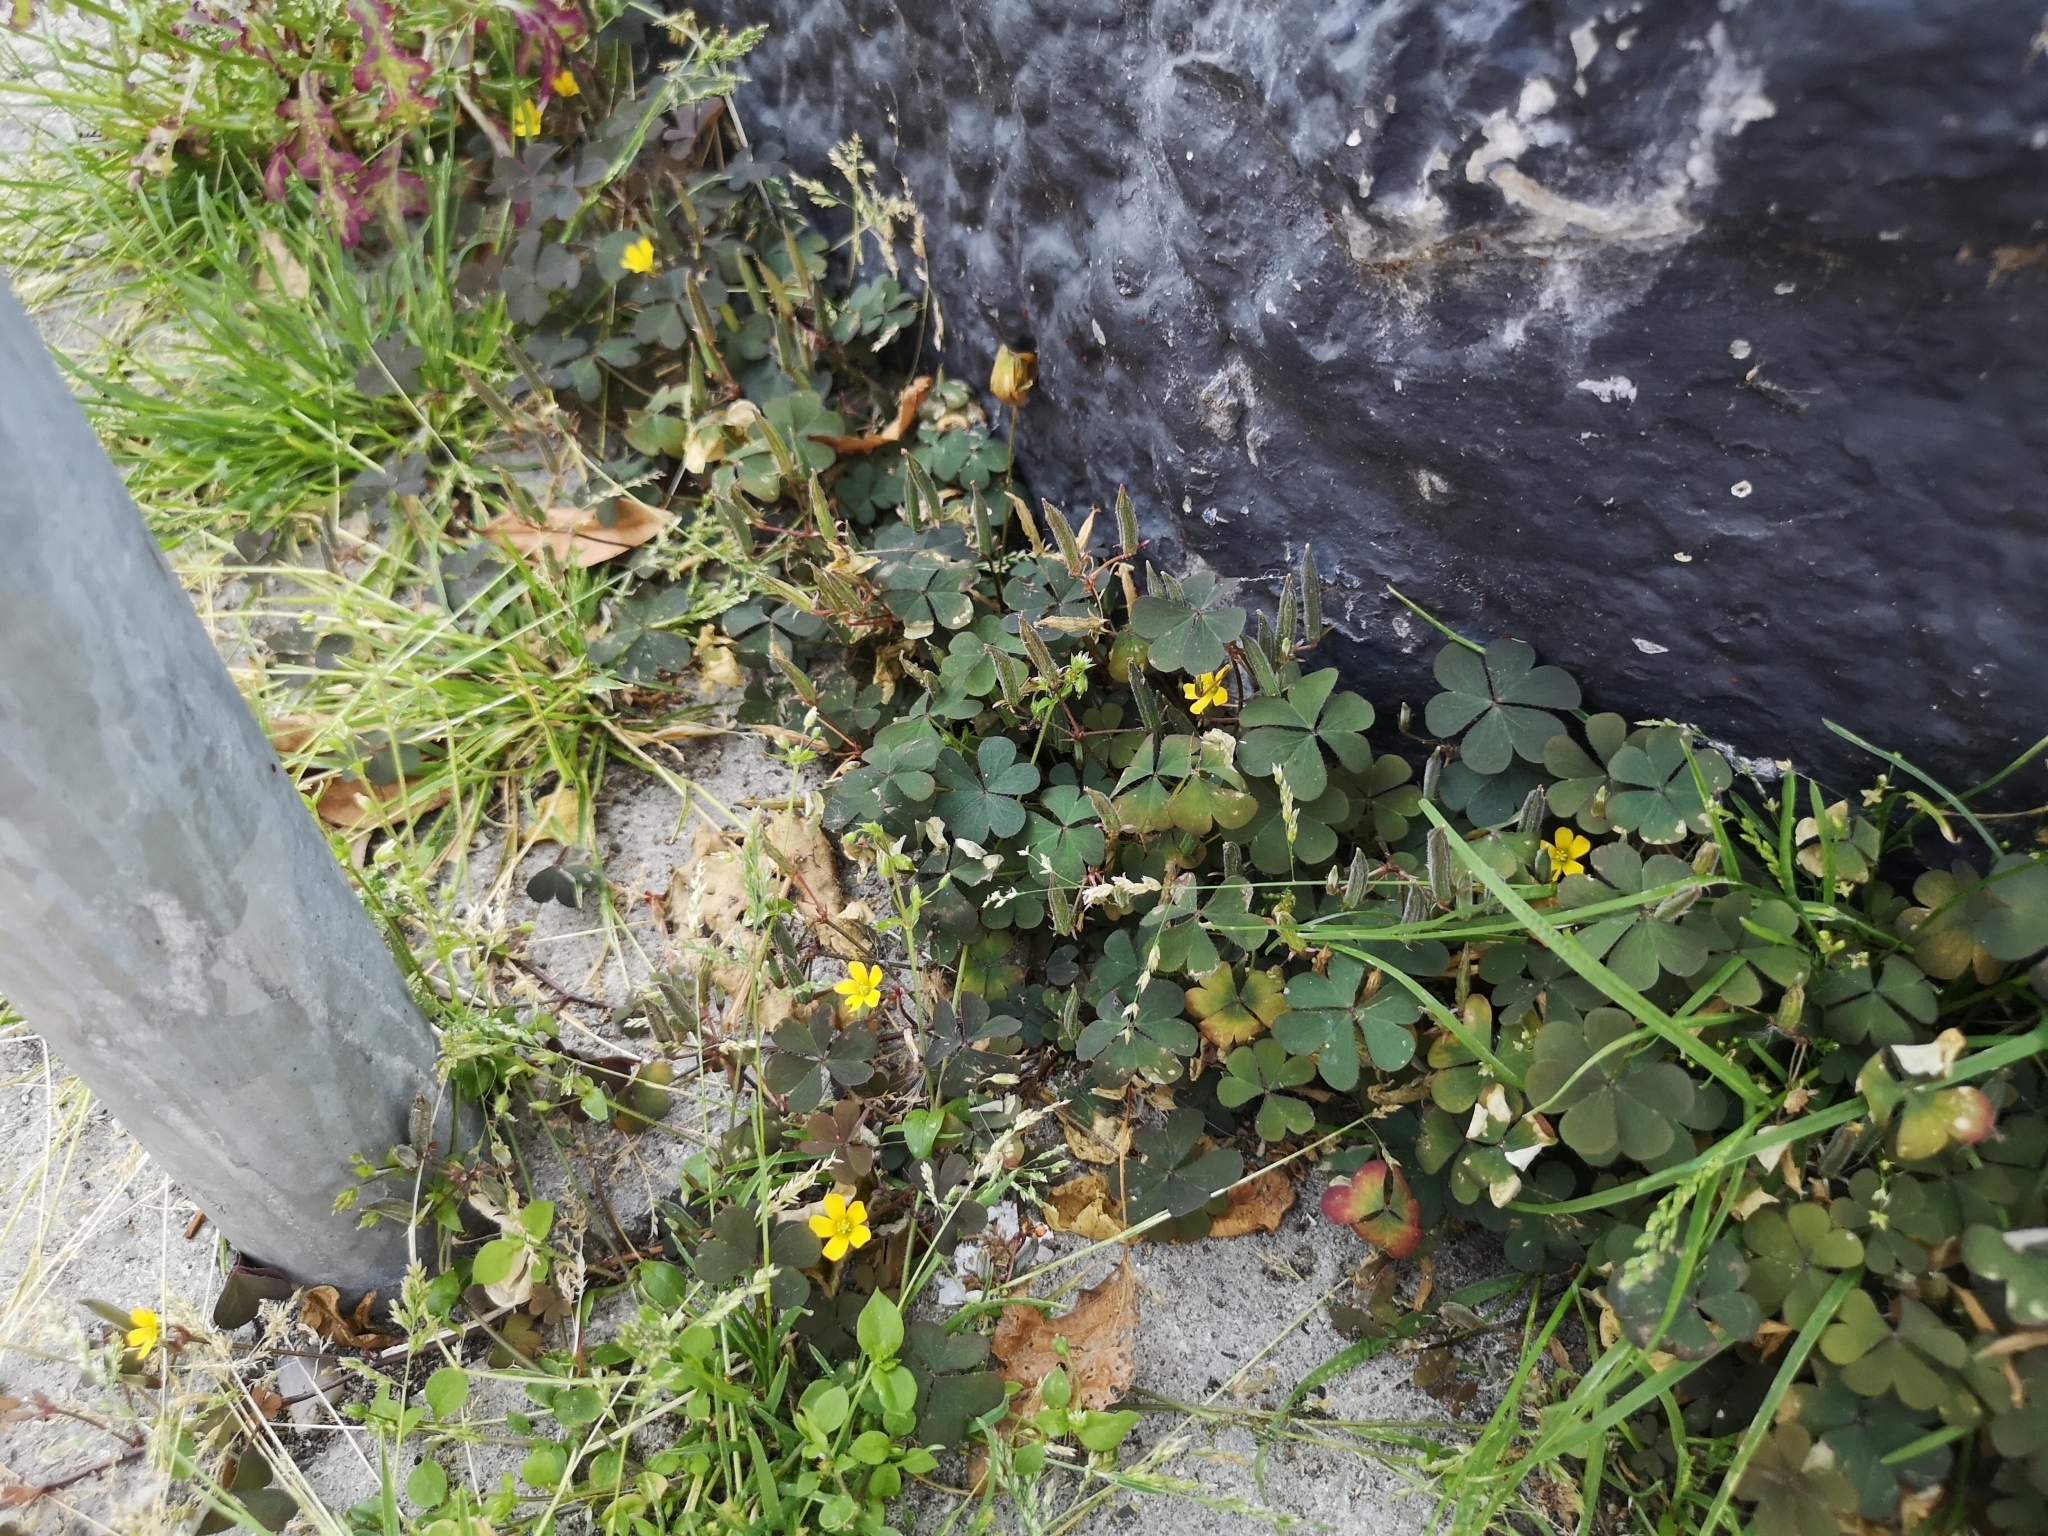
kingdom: Plantae
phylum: Tracheophyta
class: Magnoliopsida
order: Oxalidales
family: Oxalidaceae
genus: Oxalis
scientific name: Oxalis corniculata
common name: Procumbent yellow-sorrel
